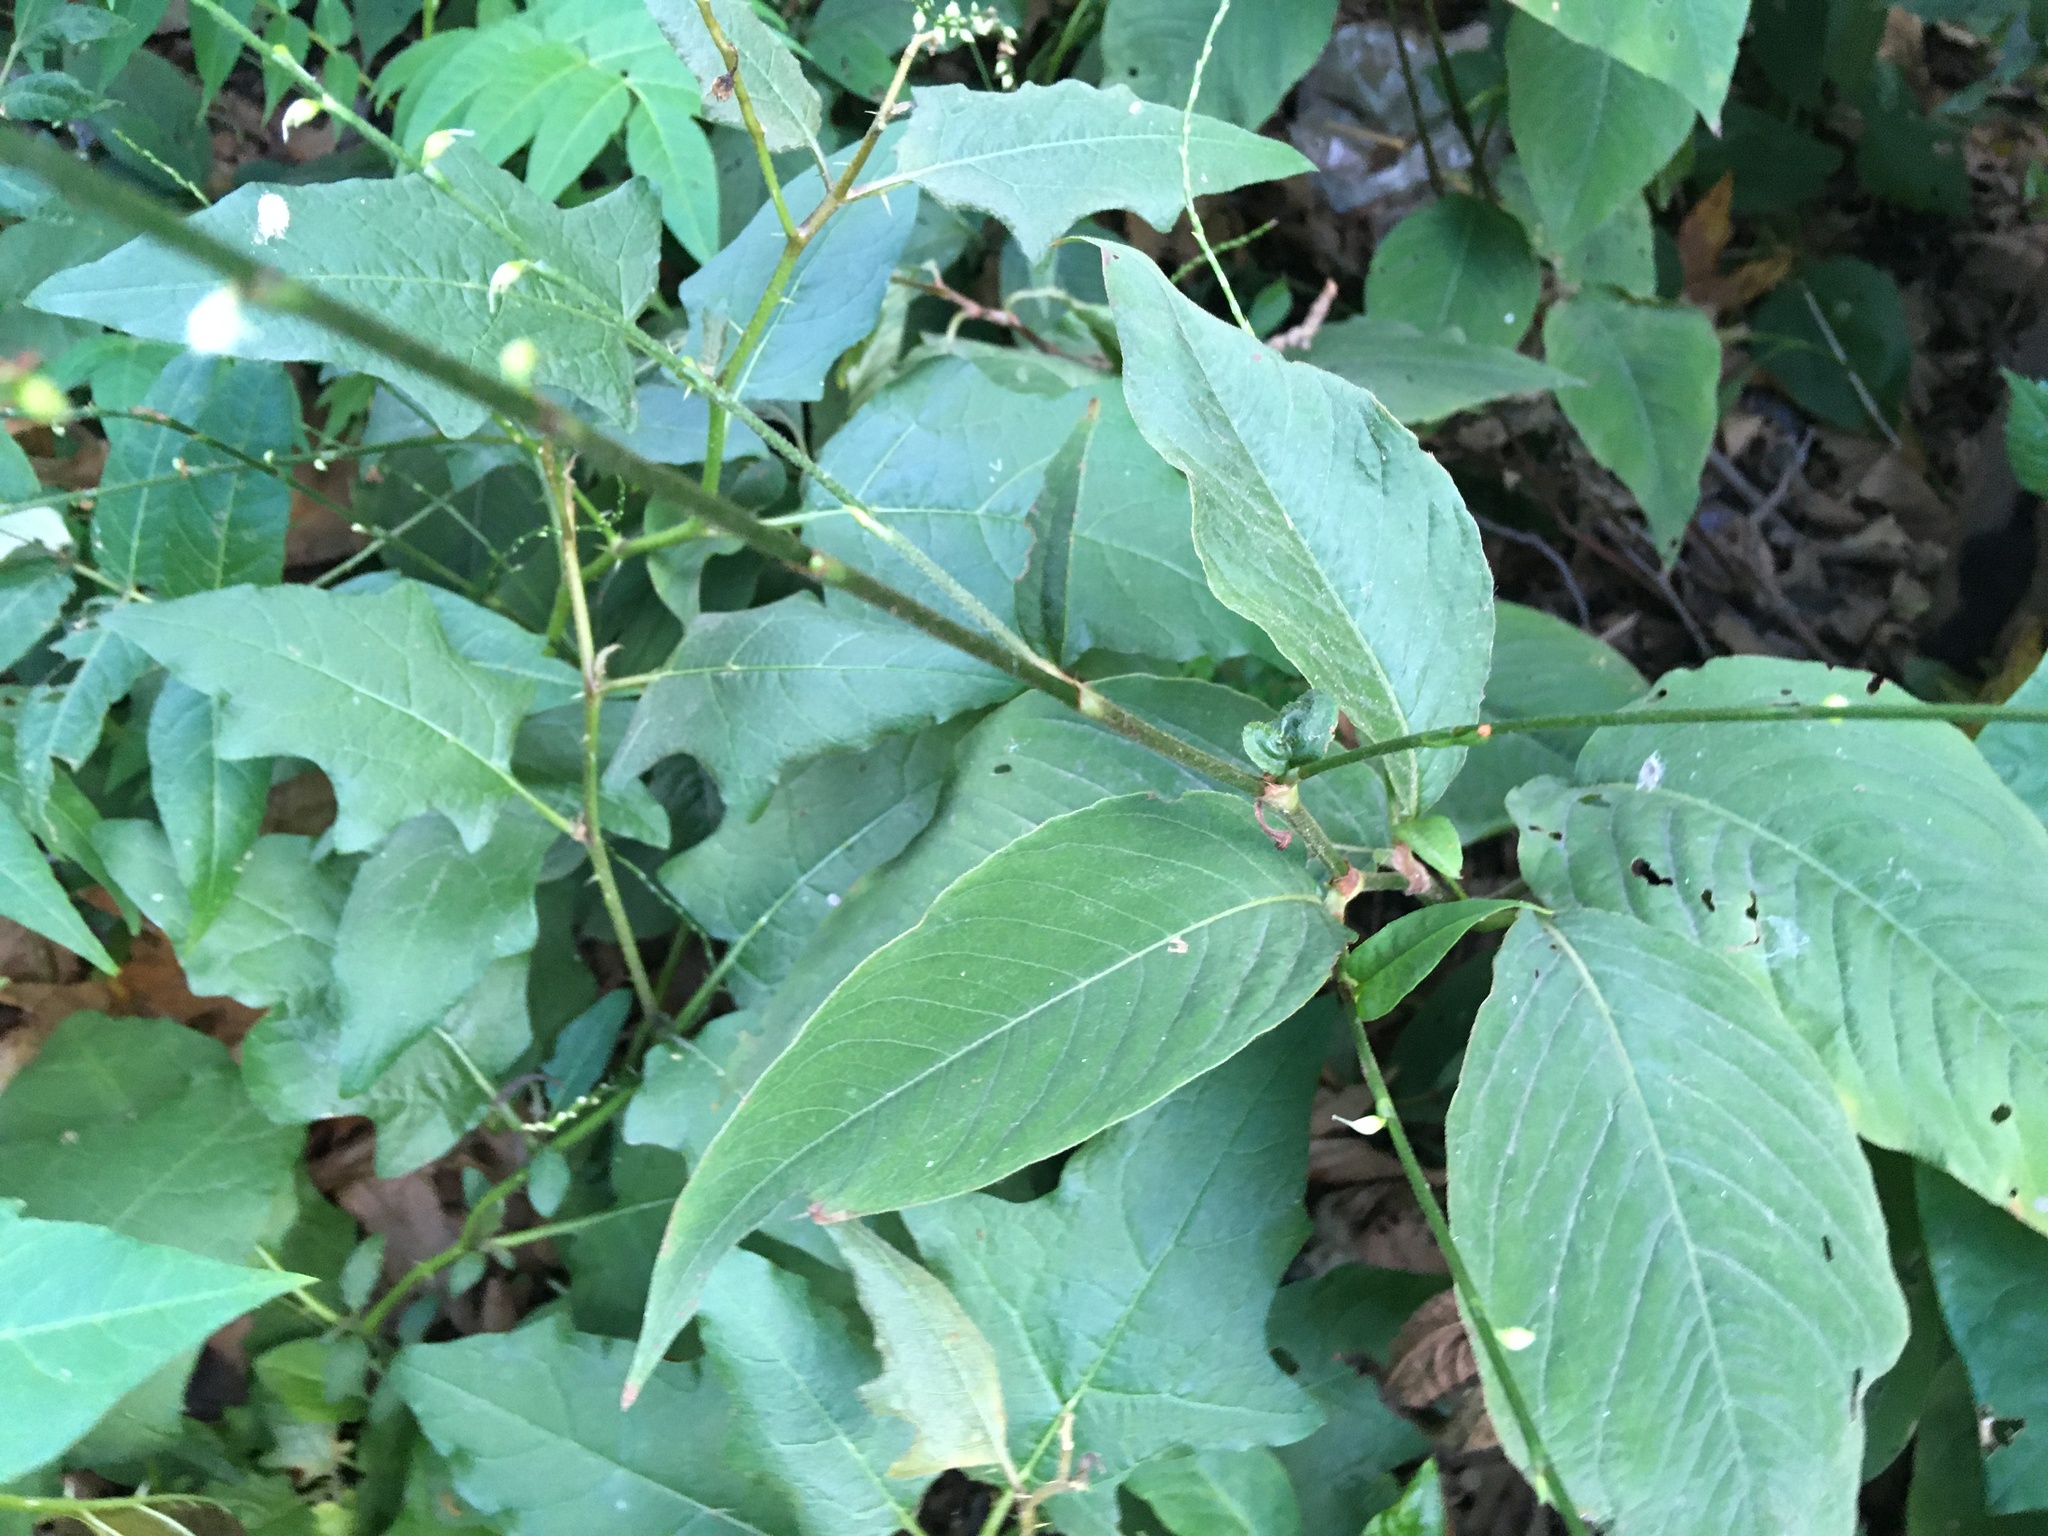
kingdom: Plantae
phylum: Tracheophyta
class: Magnoliopsida
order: Caryophyllales
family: Polygonaceae
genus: Persicaria
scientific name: Persicaria virginiana
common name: Jumpseed
